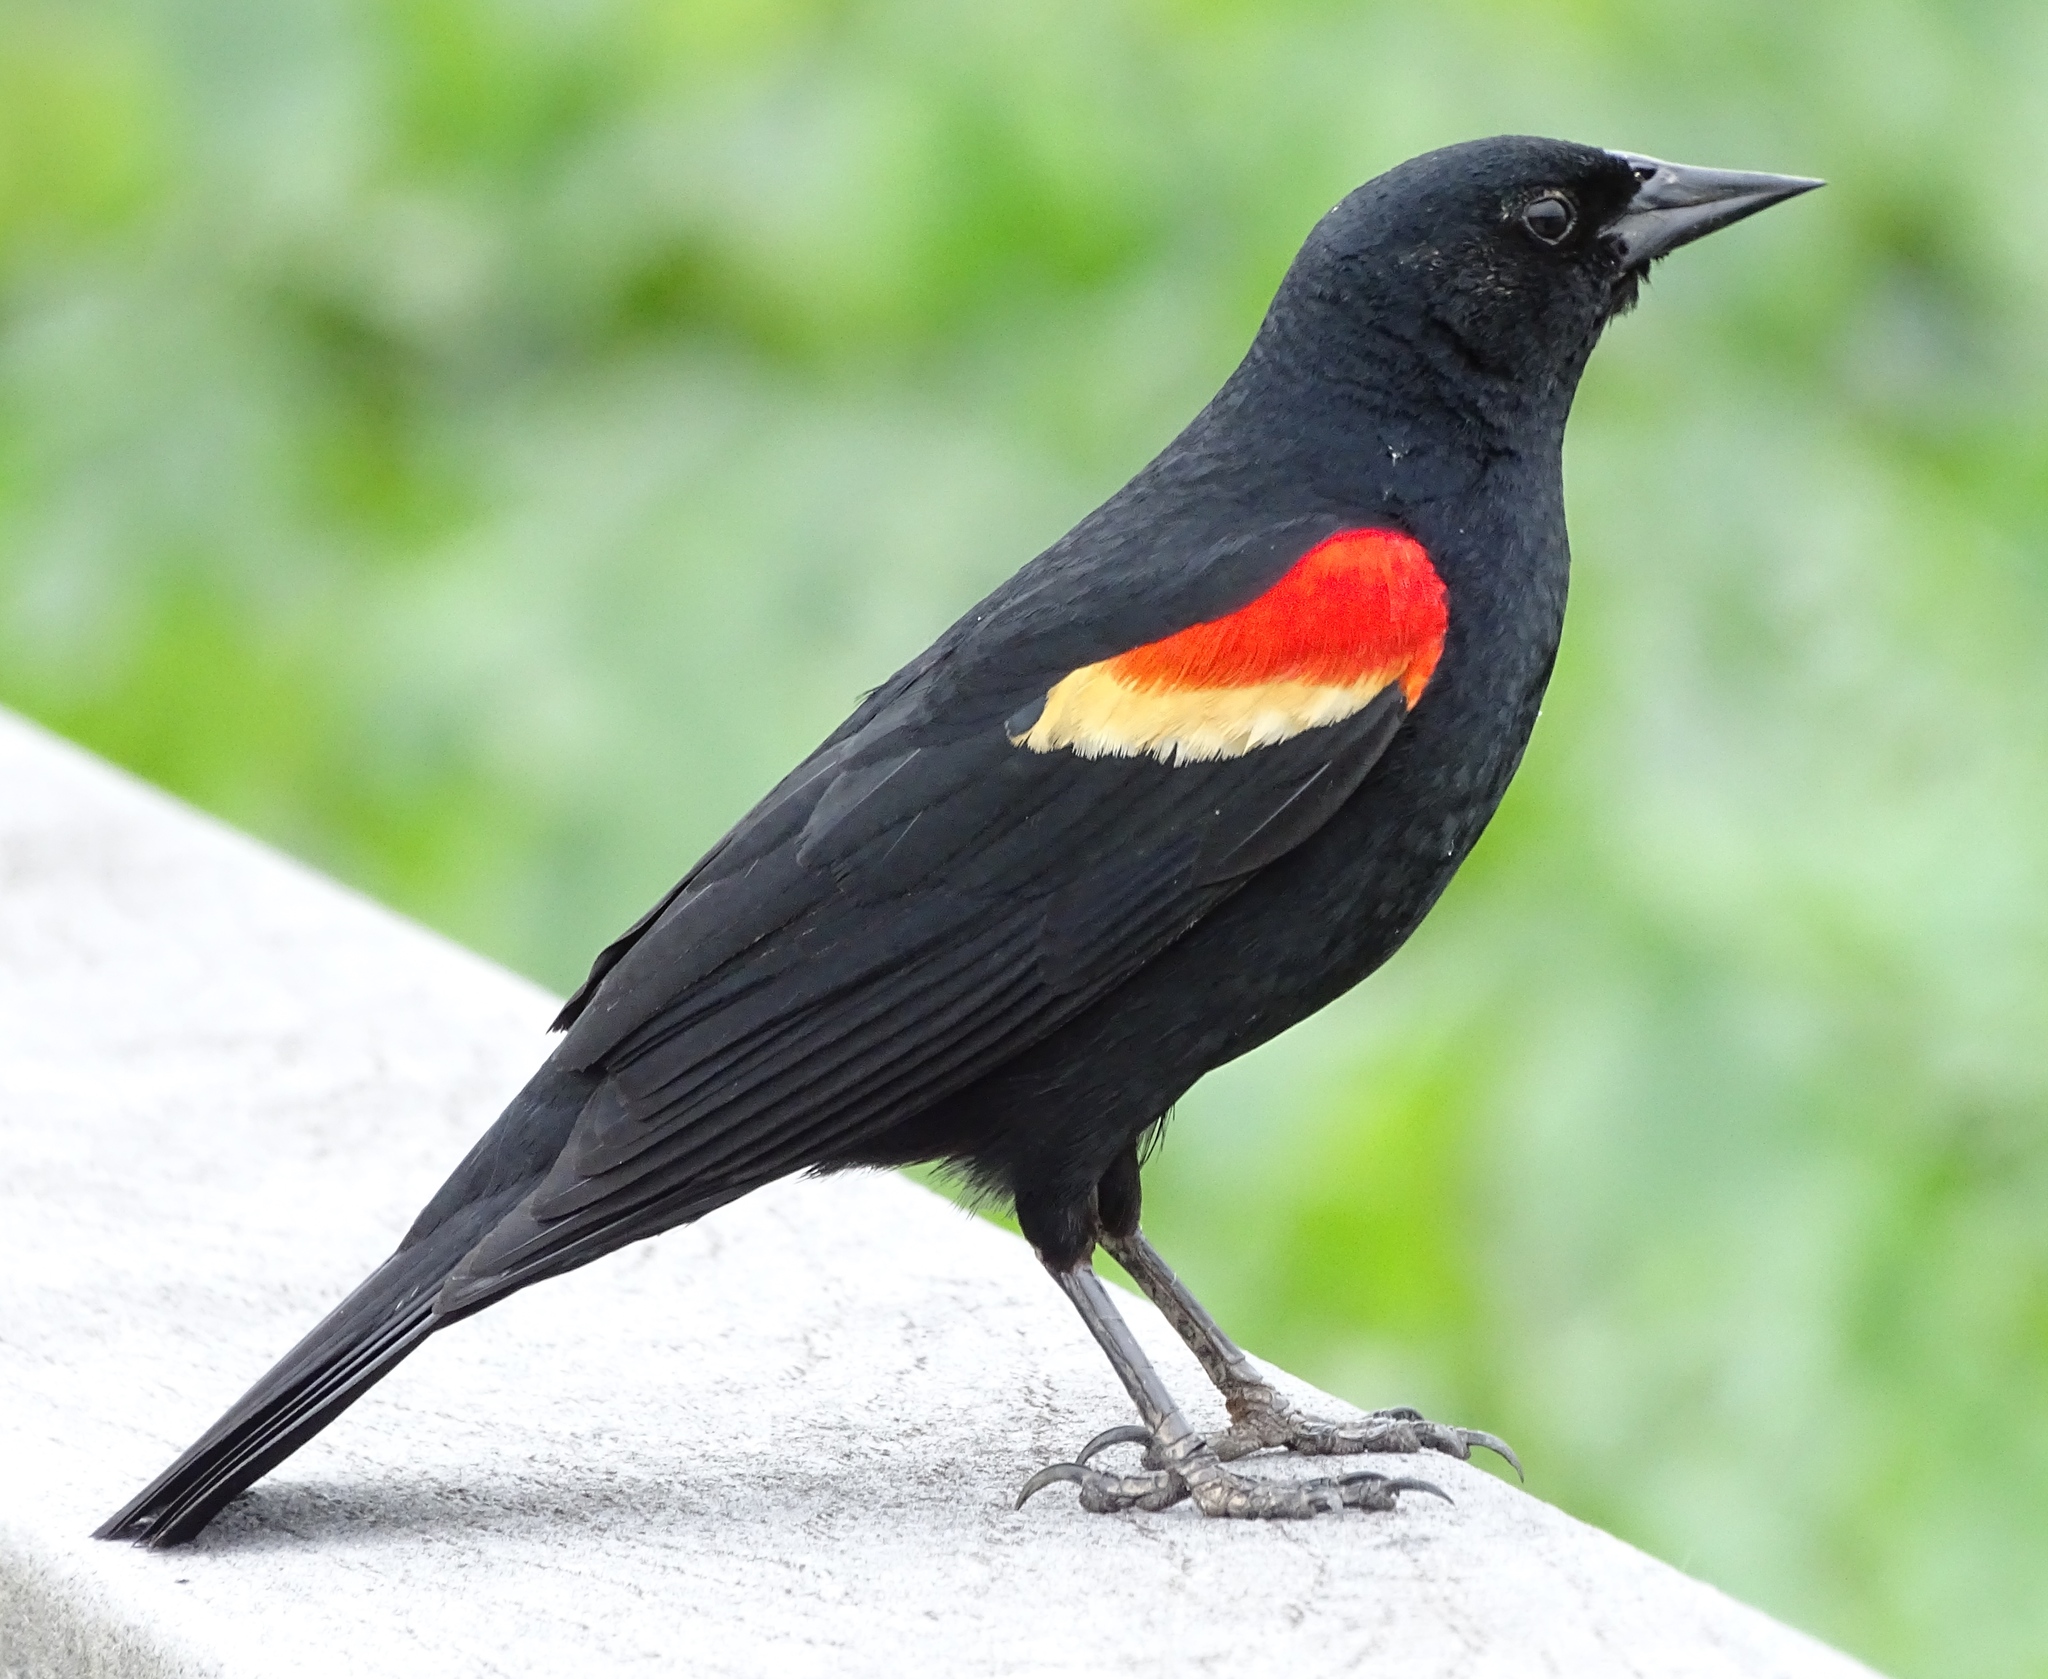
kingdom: Animalia
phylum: Chordata
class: Aves
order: Passeriformes
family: Icteridae
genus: Agelaius
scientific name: Agelaius phoeniceus
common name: Red-winged blackbird
